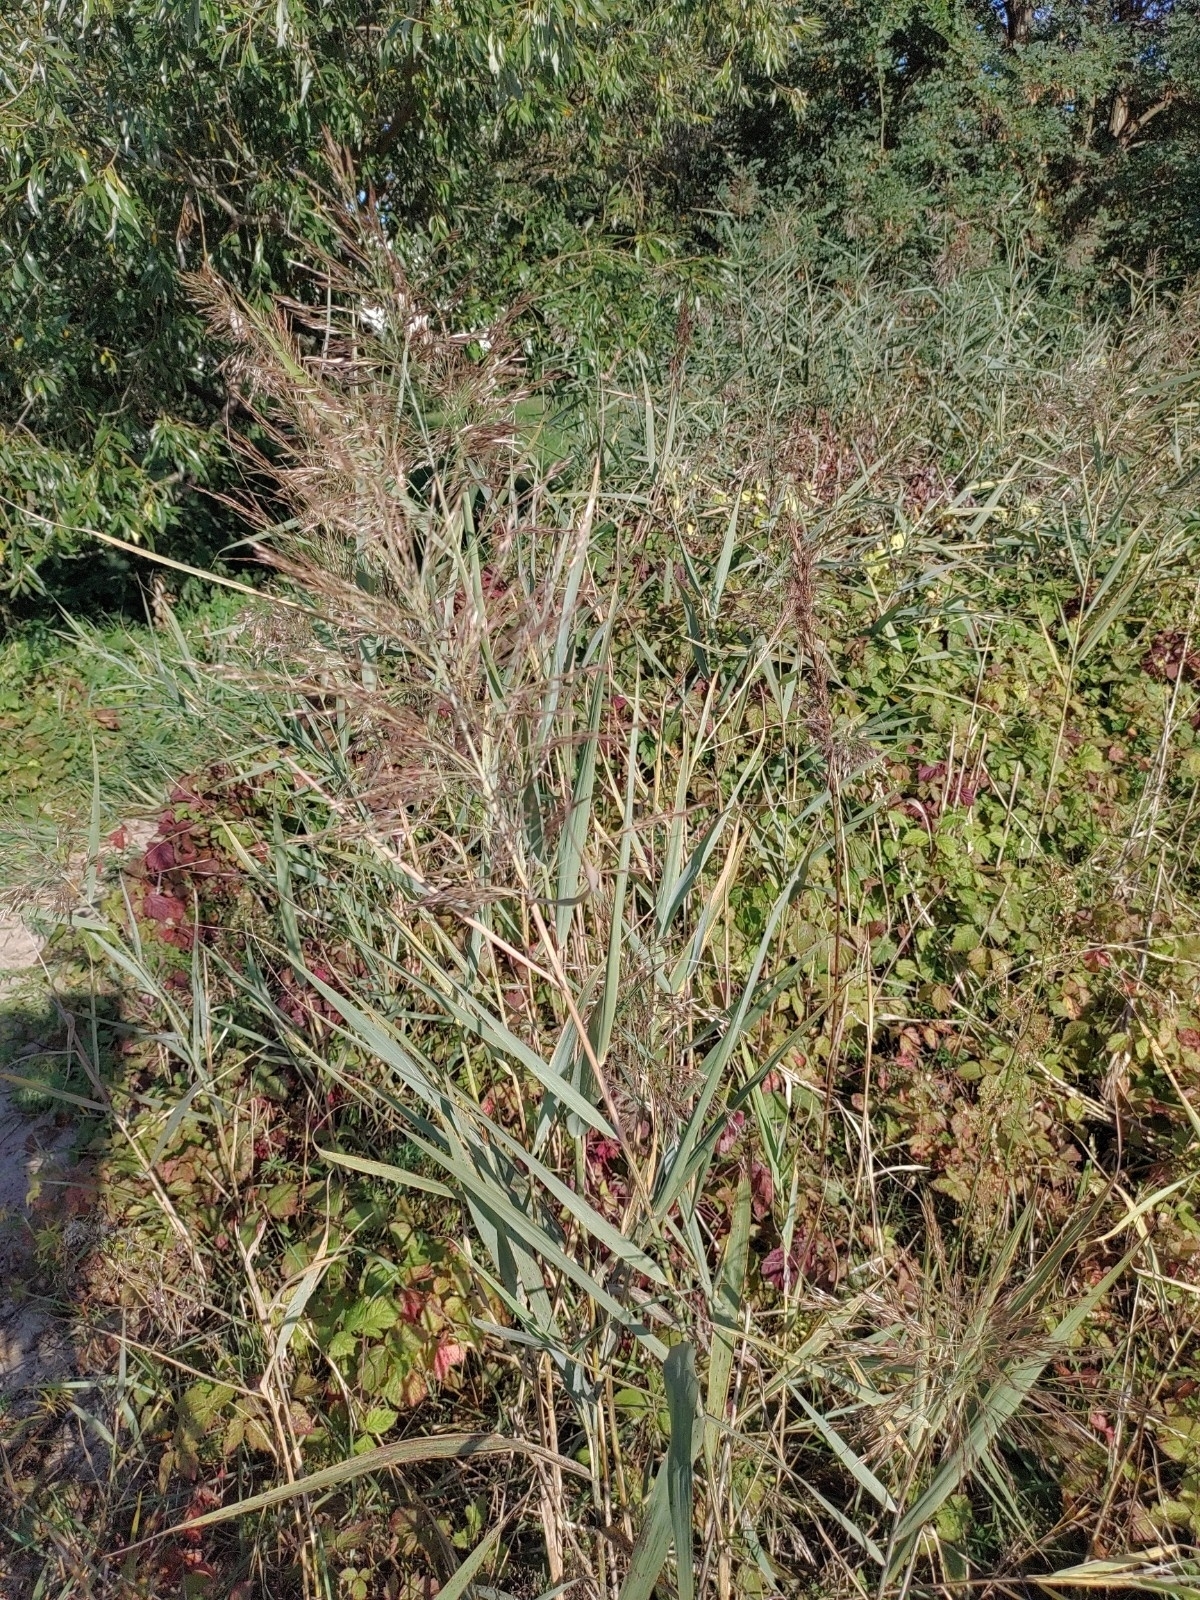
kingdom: Plantae
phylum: Tracheophyta
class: Liliopsida
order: Poales
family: Poaceae
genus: Phragmites
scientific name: Phragmites australis
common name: Common reed
